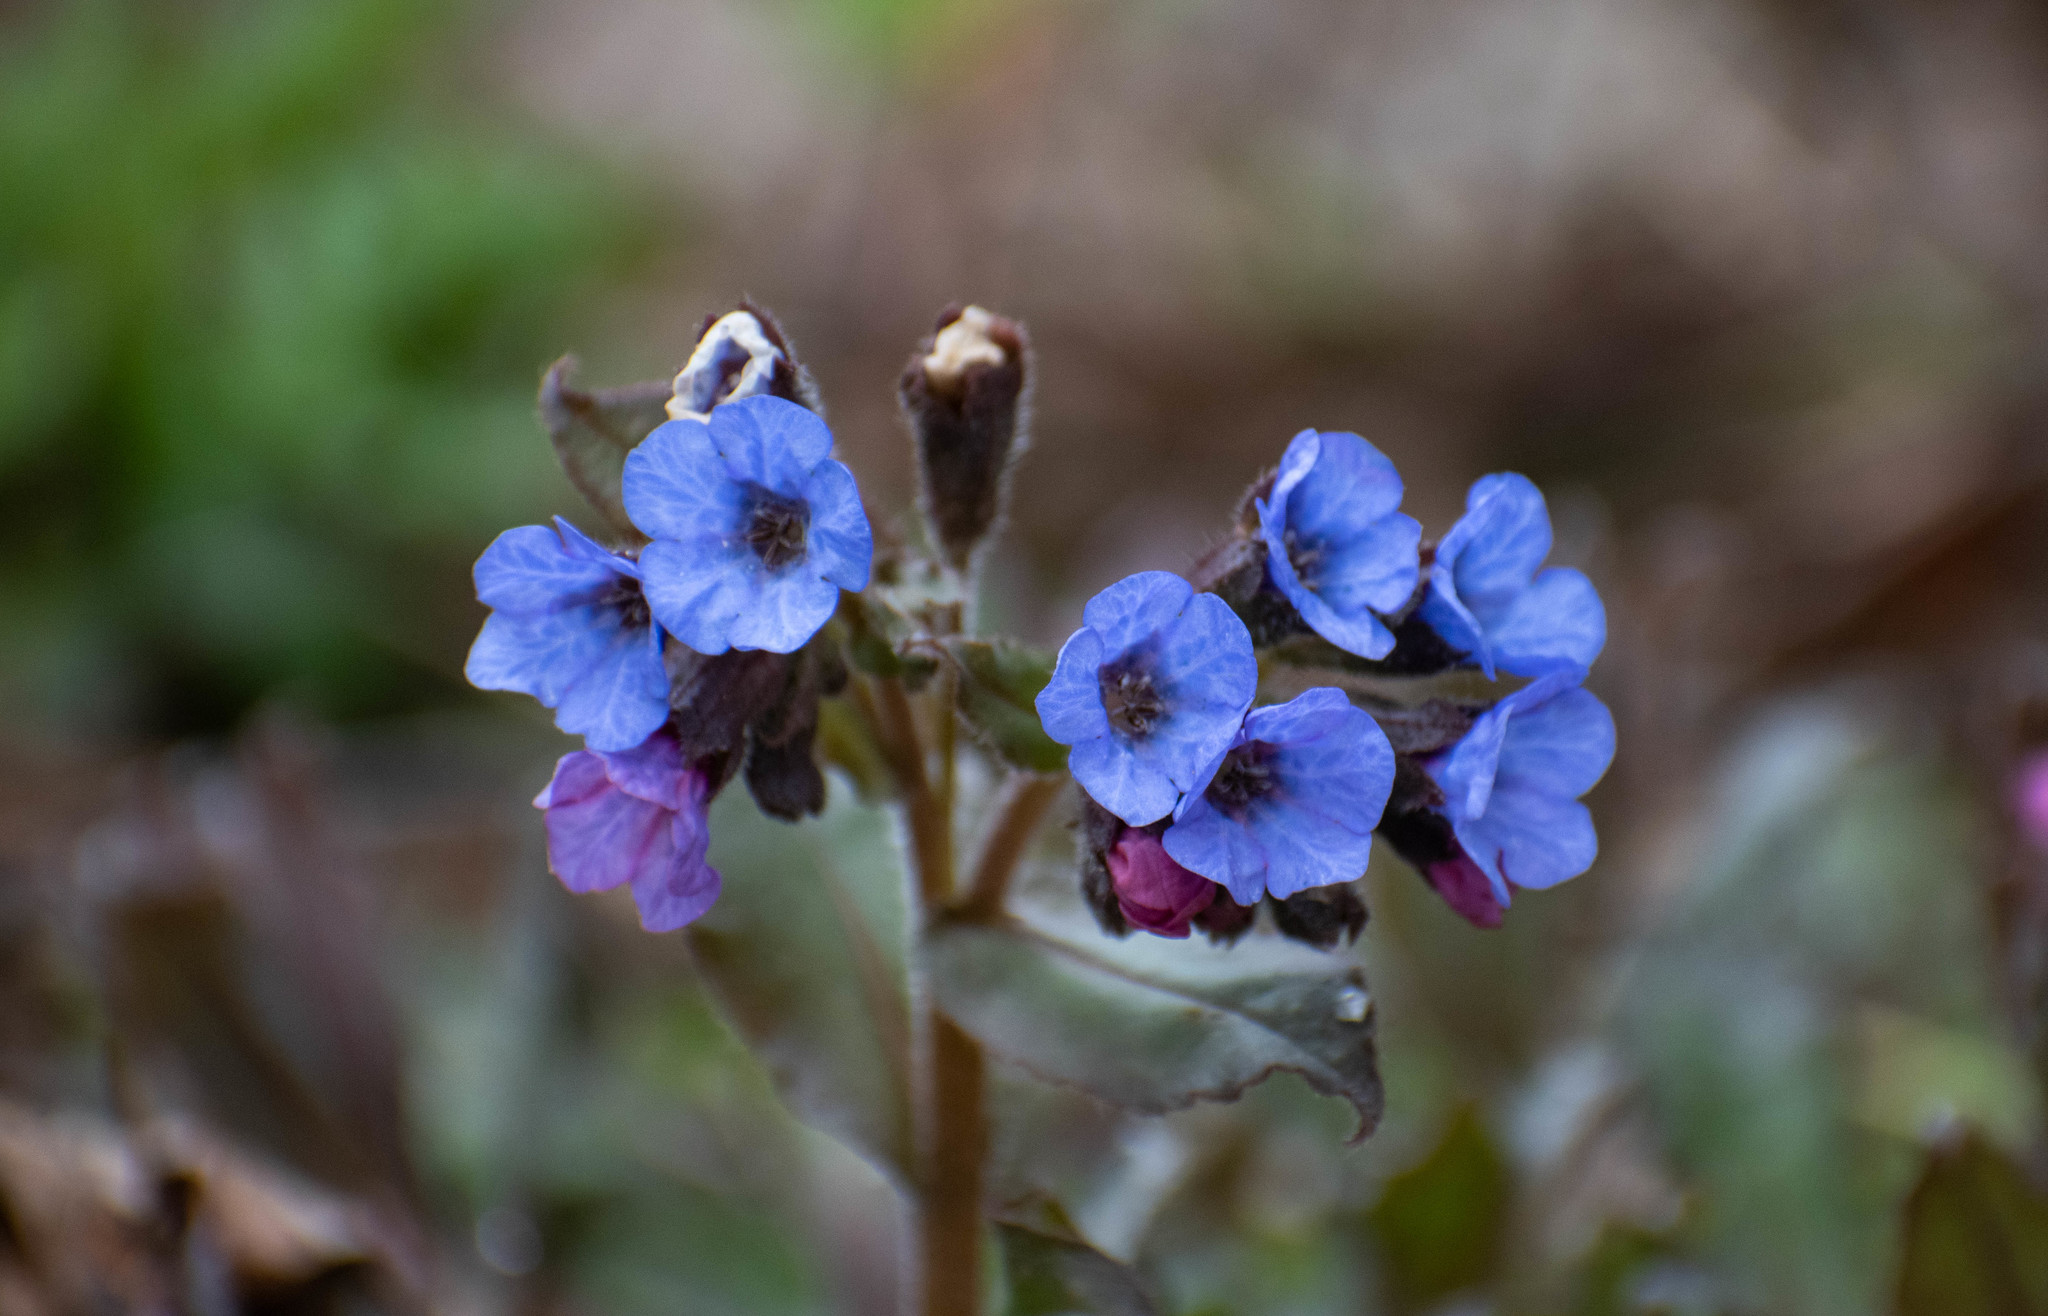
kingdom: Plantae
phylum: Tracheophyta
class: Magnoliopsida
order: Boraginales
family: Boraginaceae
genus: Pulmonaria
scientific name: Pulmonaria obscura
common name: Suffolk lungwort
